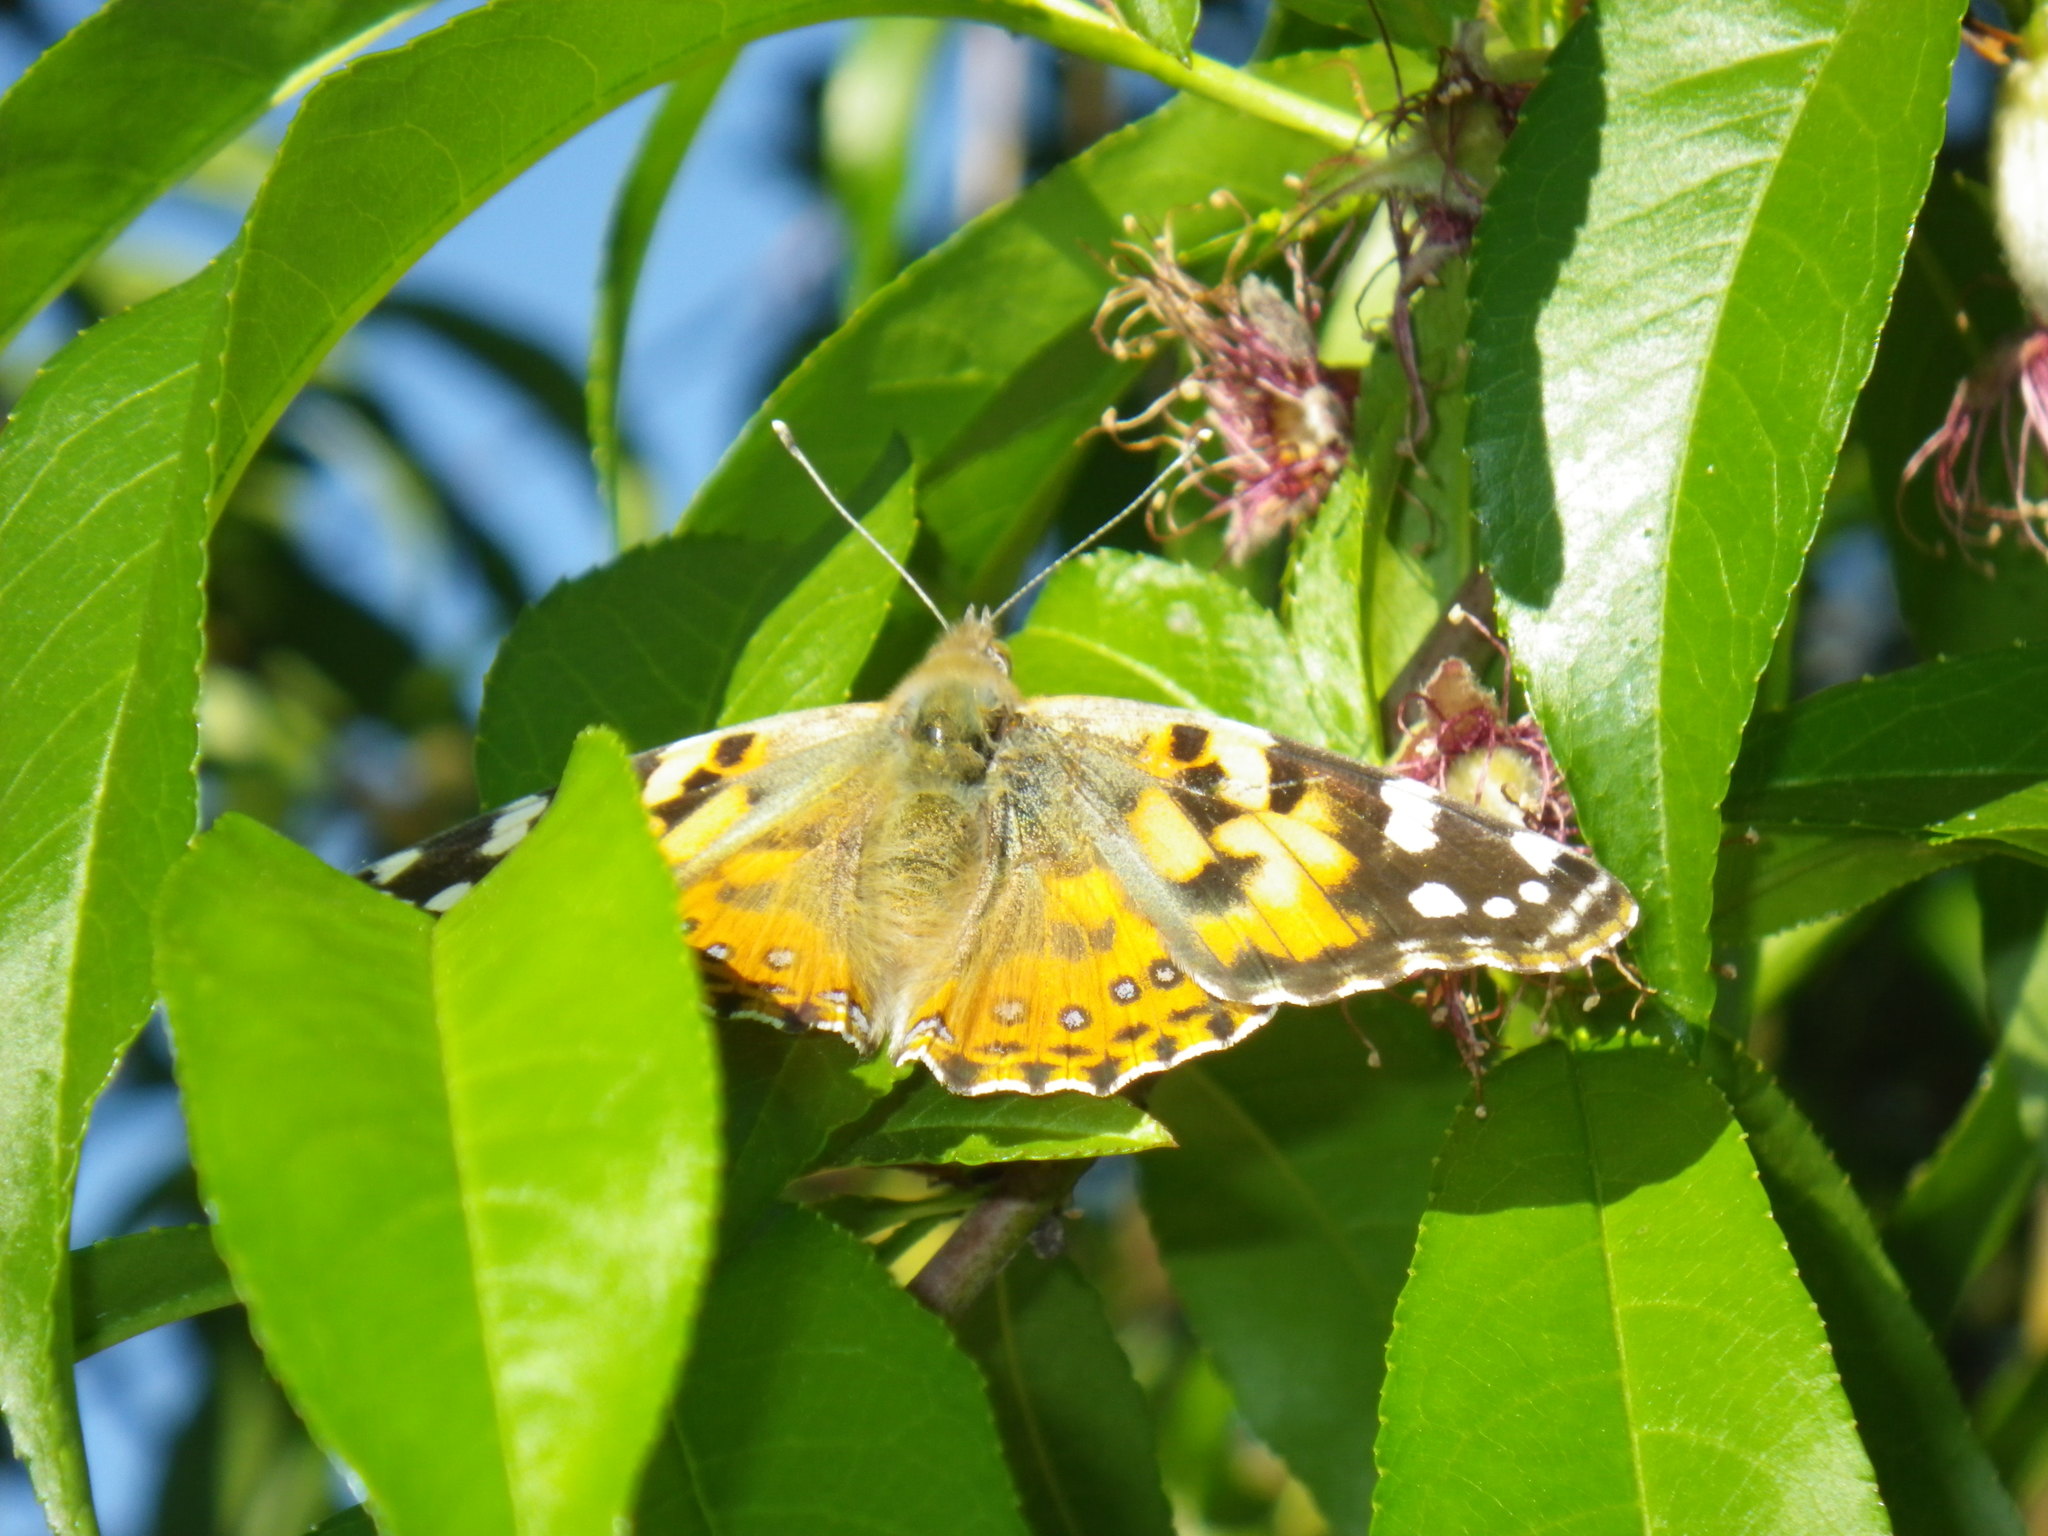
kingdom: Animalia
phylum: Arthropoda
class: Insecta
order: Lepidoptera
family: Nymphalidae
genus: Vanessa
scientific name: Vanessa cardui
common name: Painted lady
